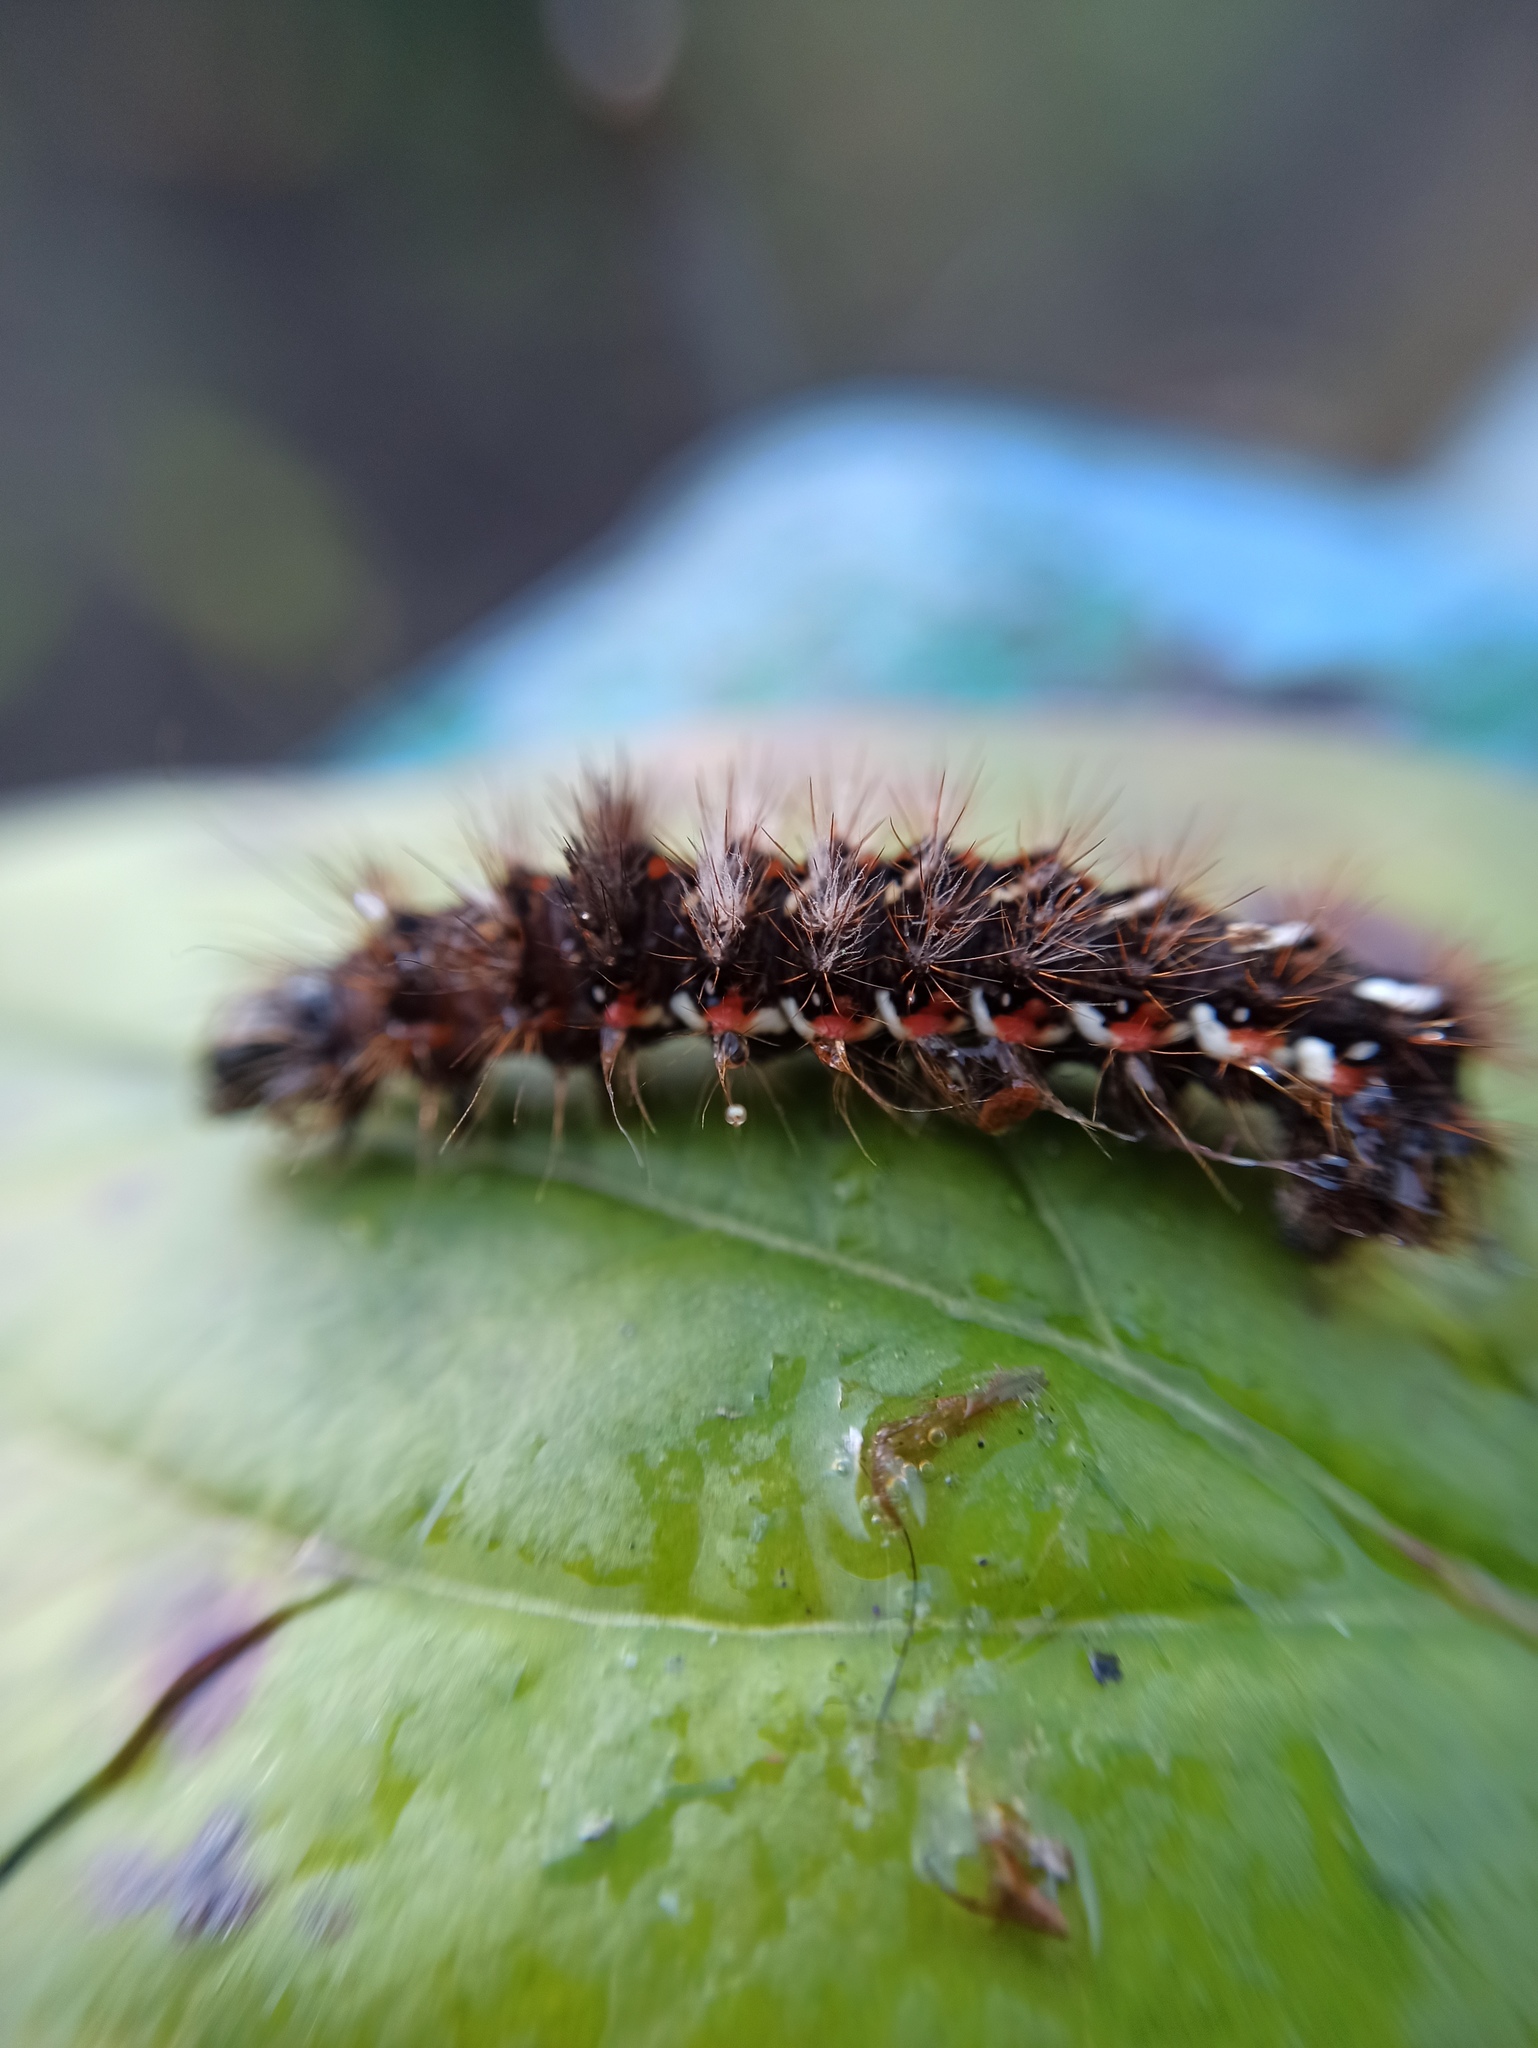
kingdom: Animalia
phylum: Arthropoda
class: Insecta
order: Lepidoptera
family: Noctuidae
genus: Acronicta
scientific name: Acronicta rumicis
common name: Knot grass
